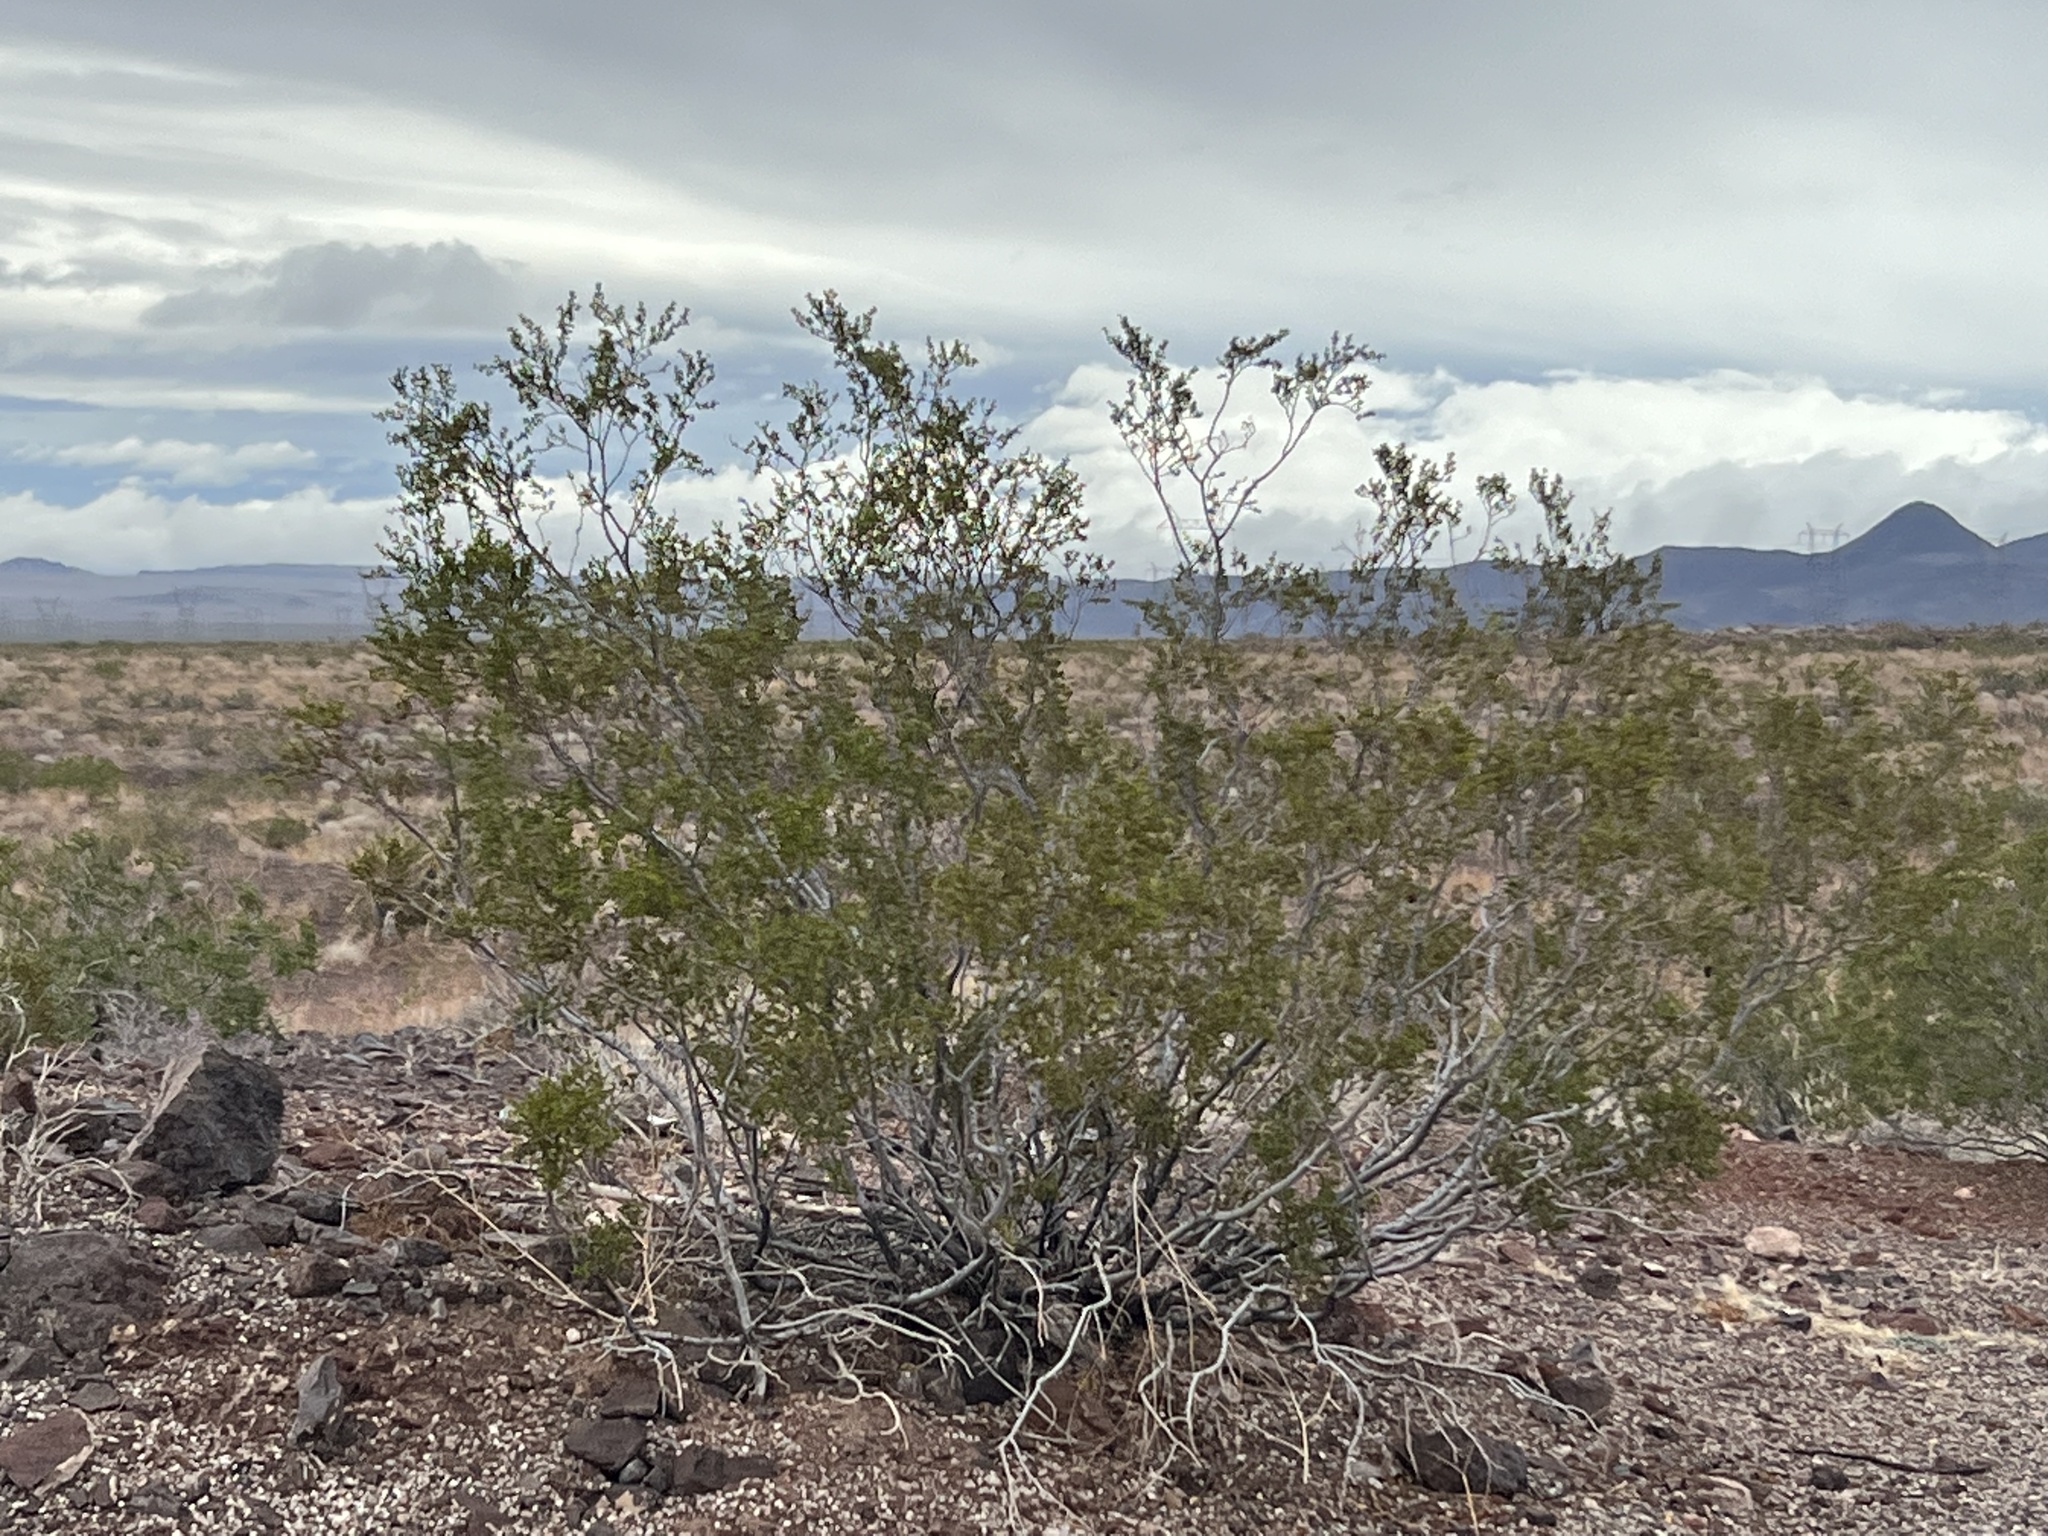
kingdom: Plantae
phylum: Tracheophyta
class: Magnoliopsida
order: Zygophyllales
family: Zygophyllaceae
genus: Larrea
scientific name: Larrea tridentata
